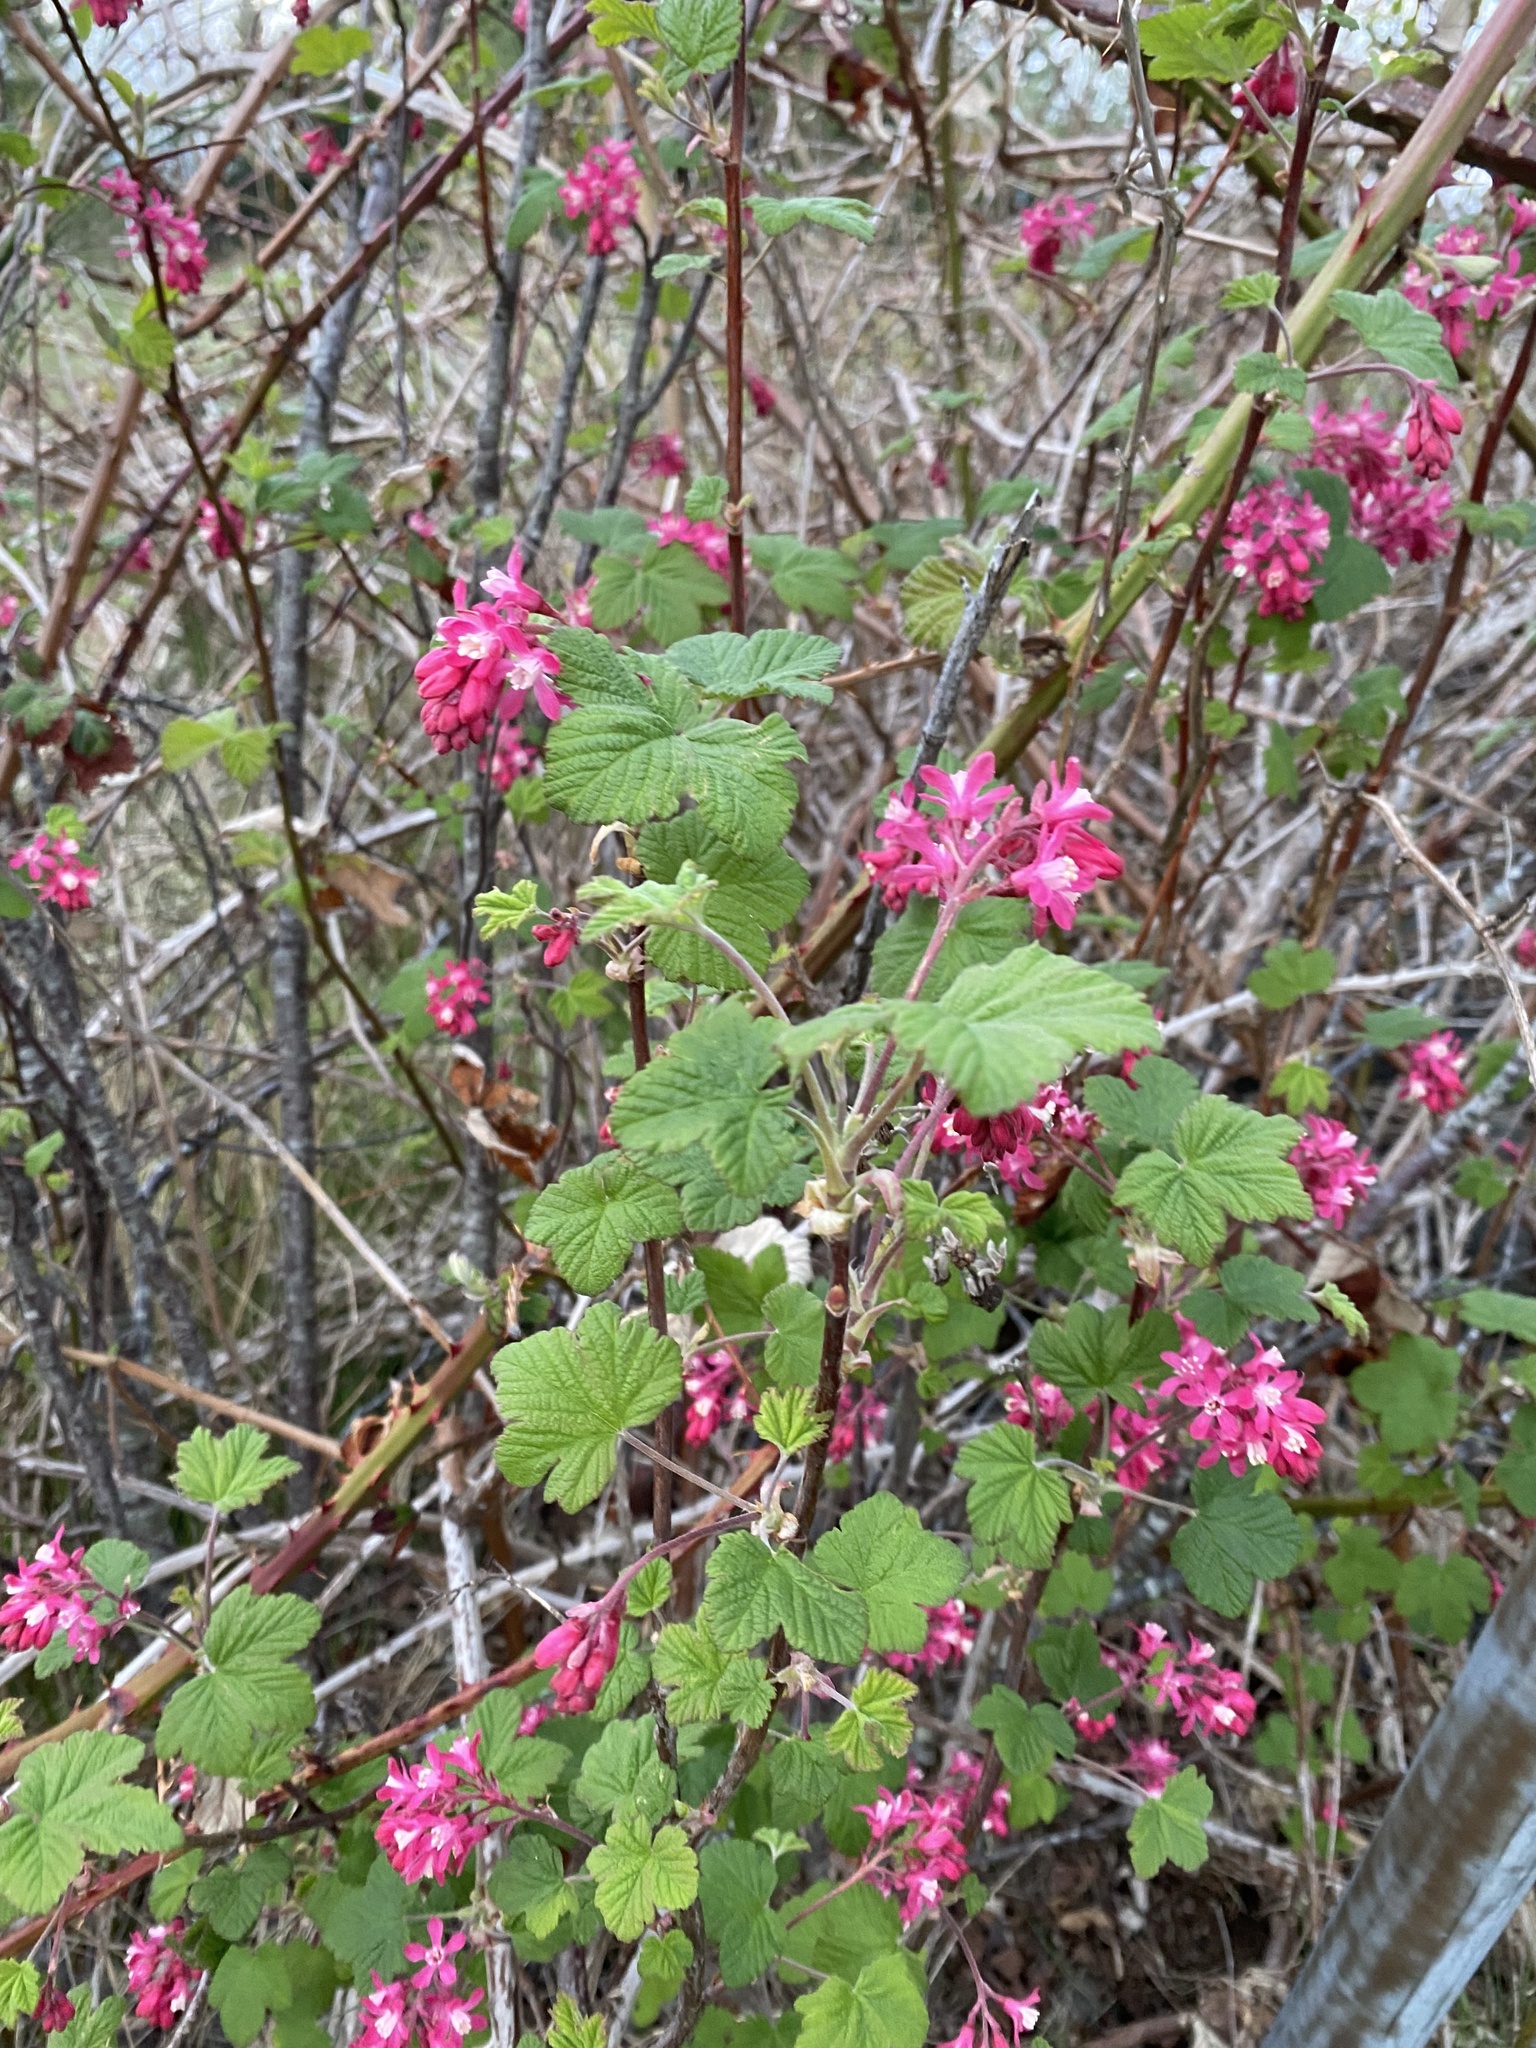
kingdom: Plantae
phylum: Tracheophyta
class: Magnoliopsida
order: Saxifragales
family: Grossulariaceae
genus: Ribes
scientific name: Ribes sanguineum
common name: Flowering currant
